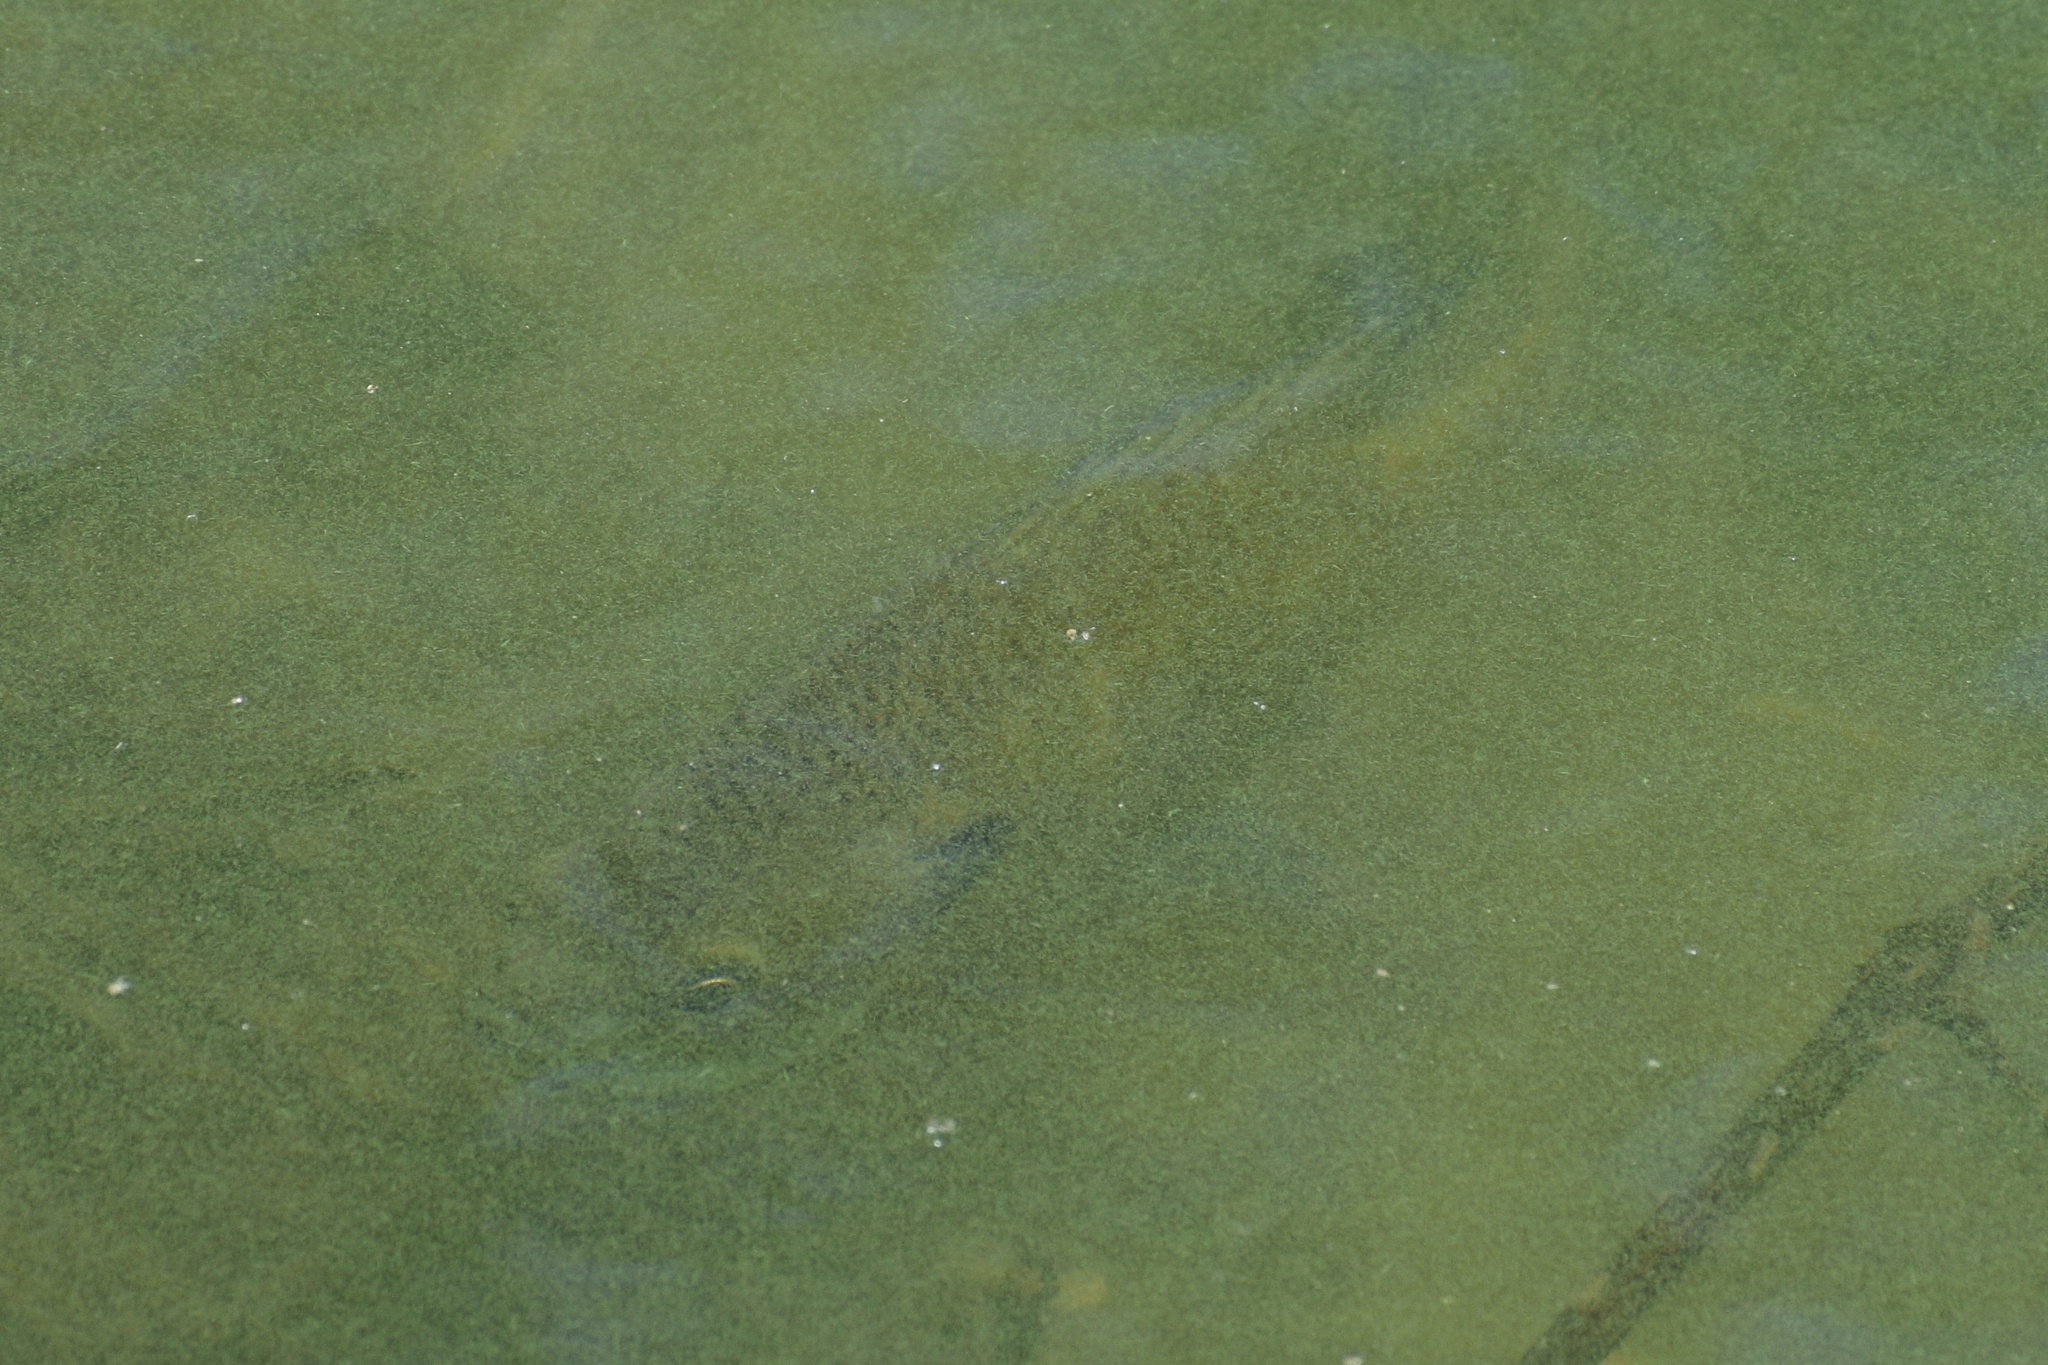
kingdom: Animalia
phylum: Chordata
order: Perciformes
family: Centrarchidae
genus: Lepomis
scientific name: Lepomis macrochirus
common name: Bluegill
